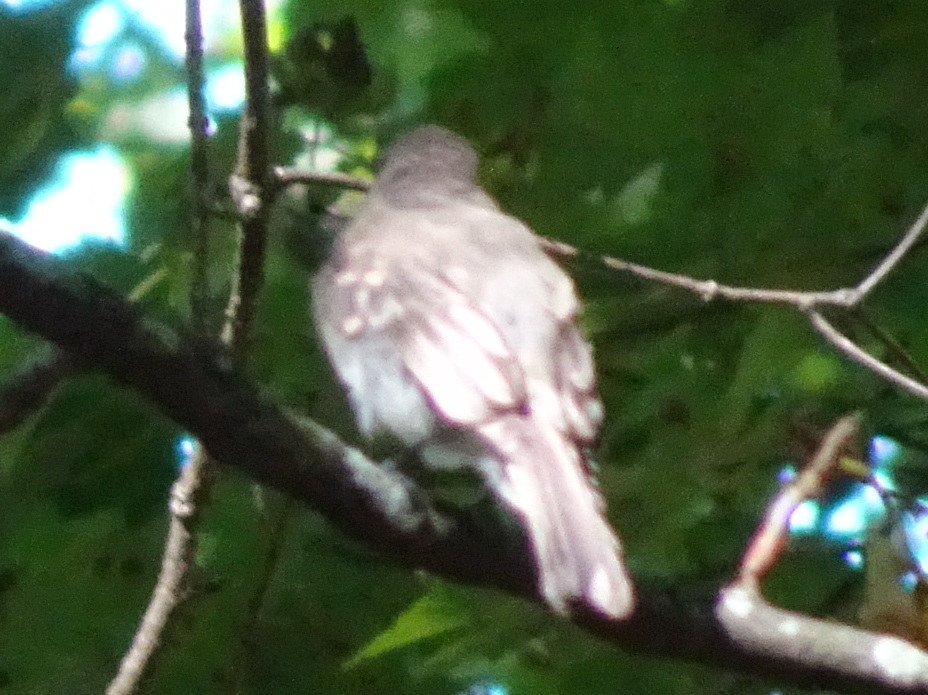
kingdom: Animalia
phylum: Chordata
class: Aves
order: Passeriformes
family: Tyrannidae
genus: Contopus
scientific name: Contopus virens
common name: Eastern wood-pewee
